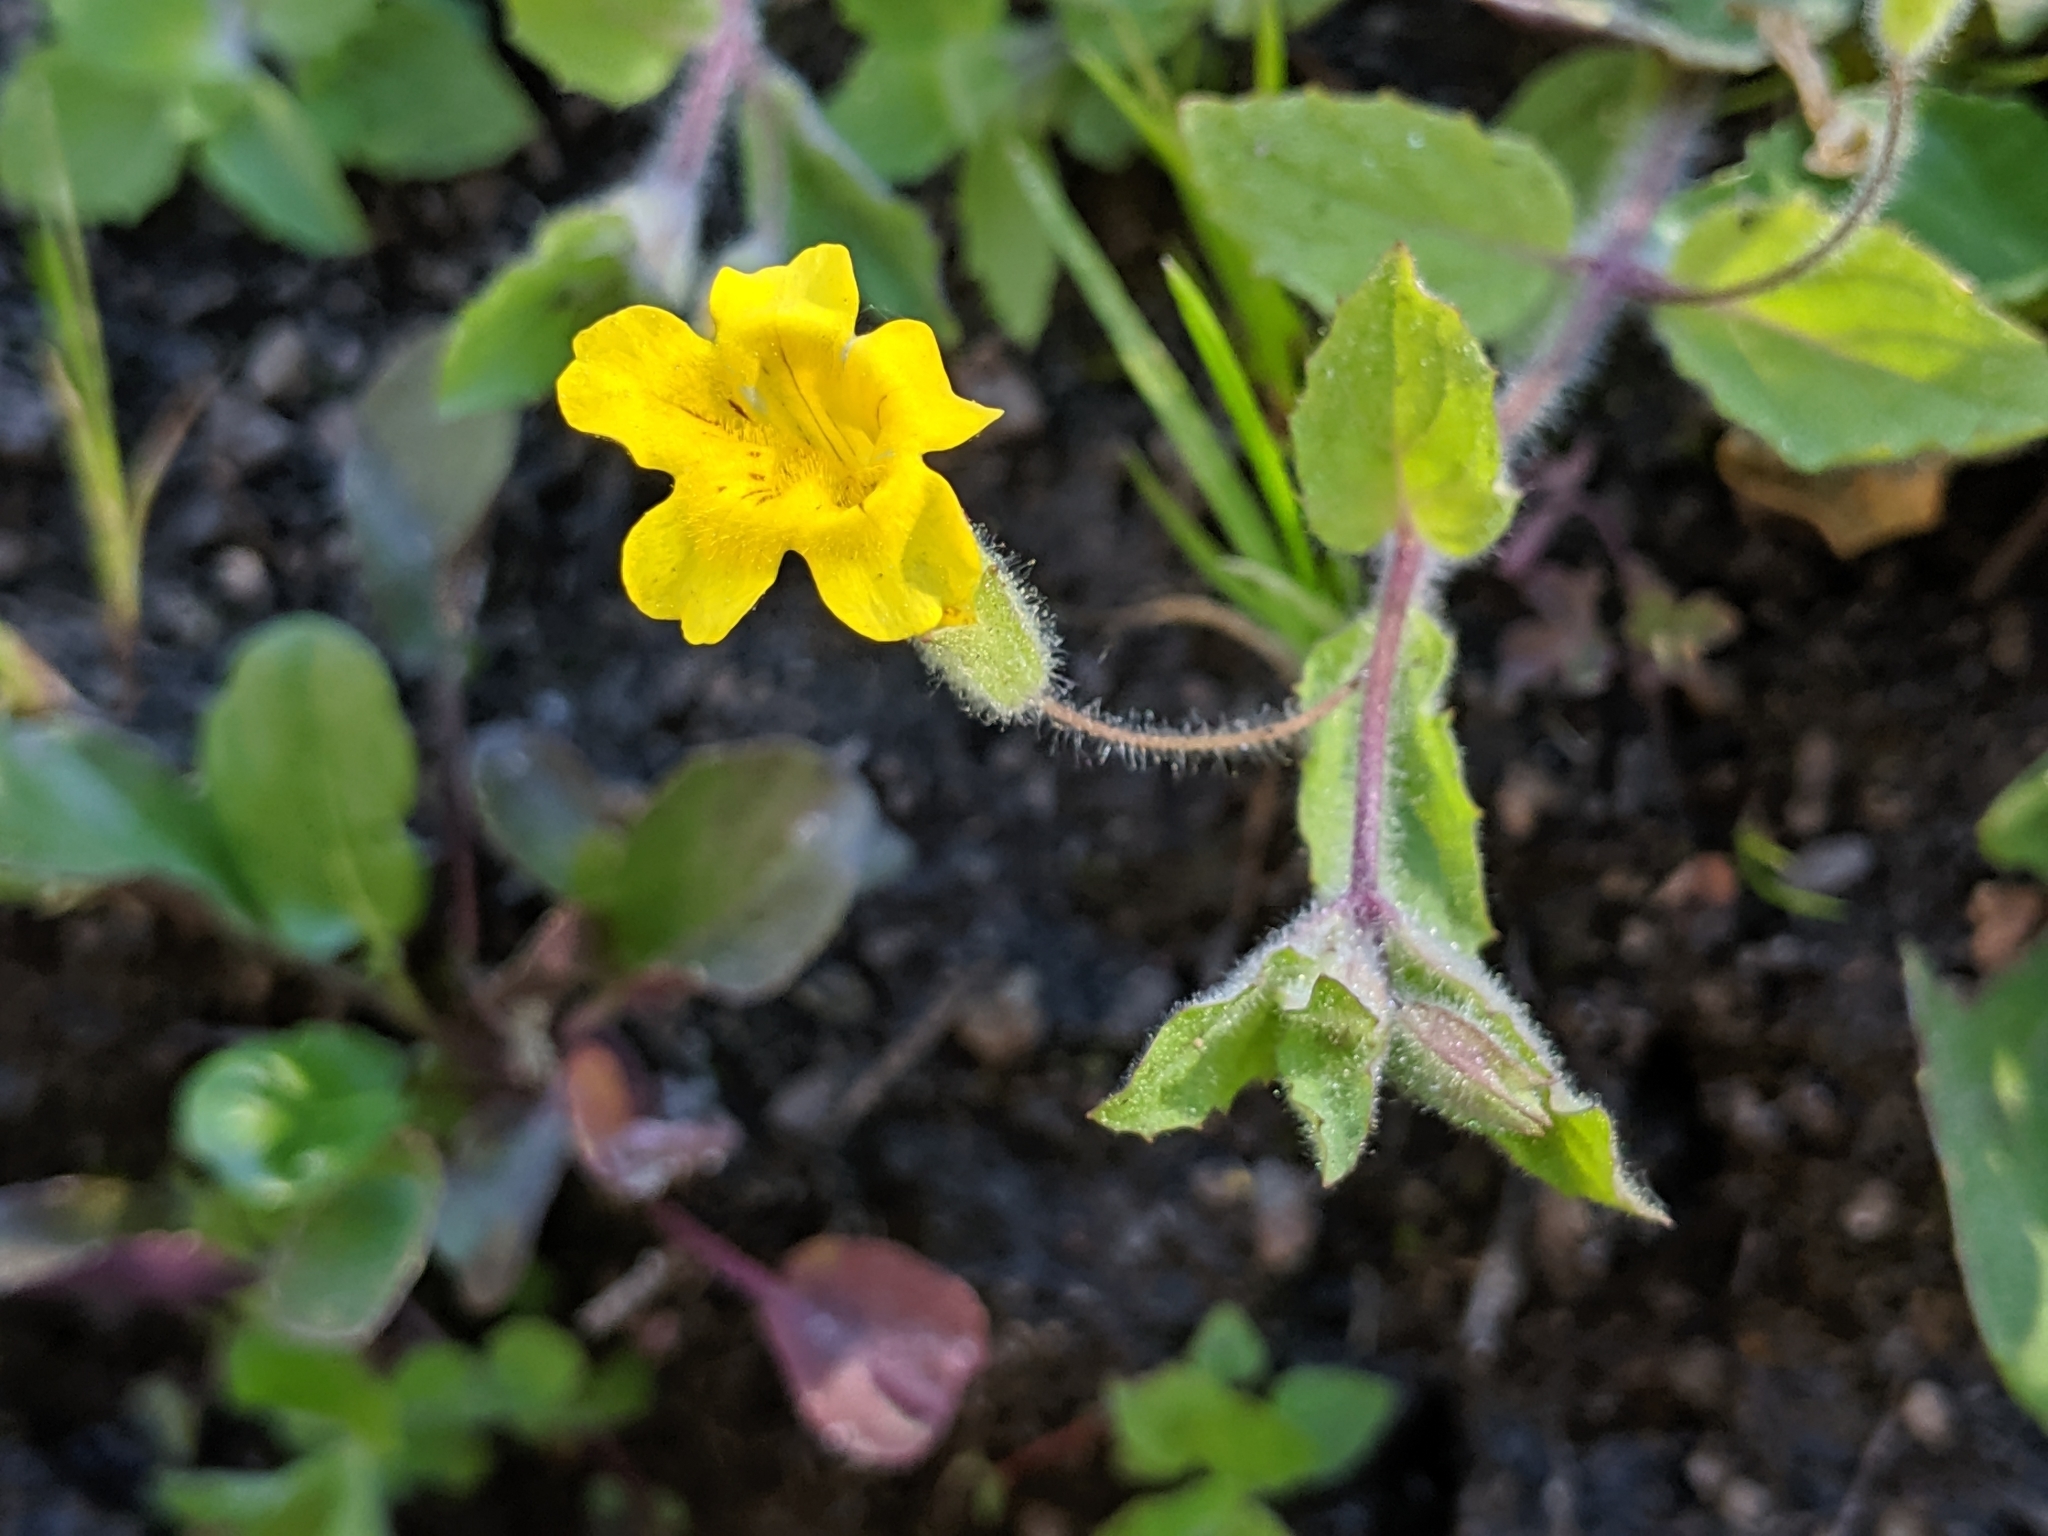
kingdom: Plantae
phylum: Tracheophyta
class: Magnoliopsida
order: Lamiales
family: Phrymaceae
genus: Erythranthe
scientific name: Erythranthe moschata
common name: Muskflower
